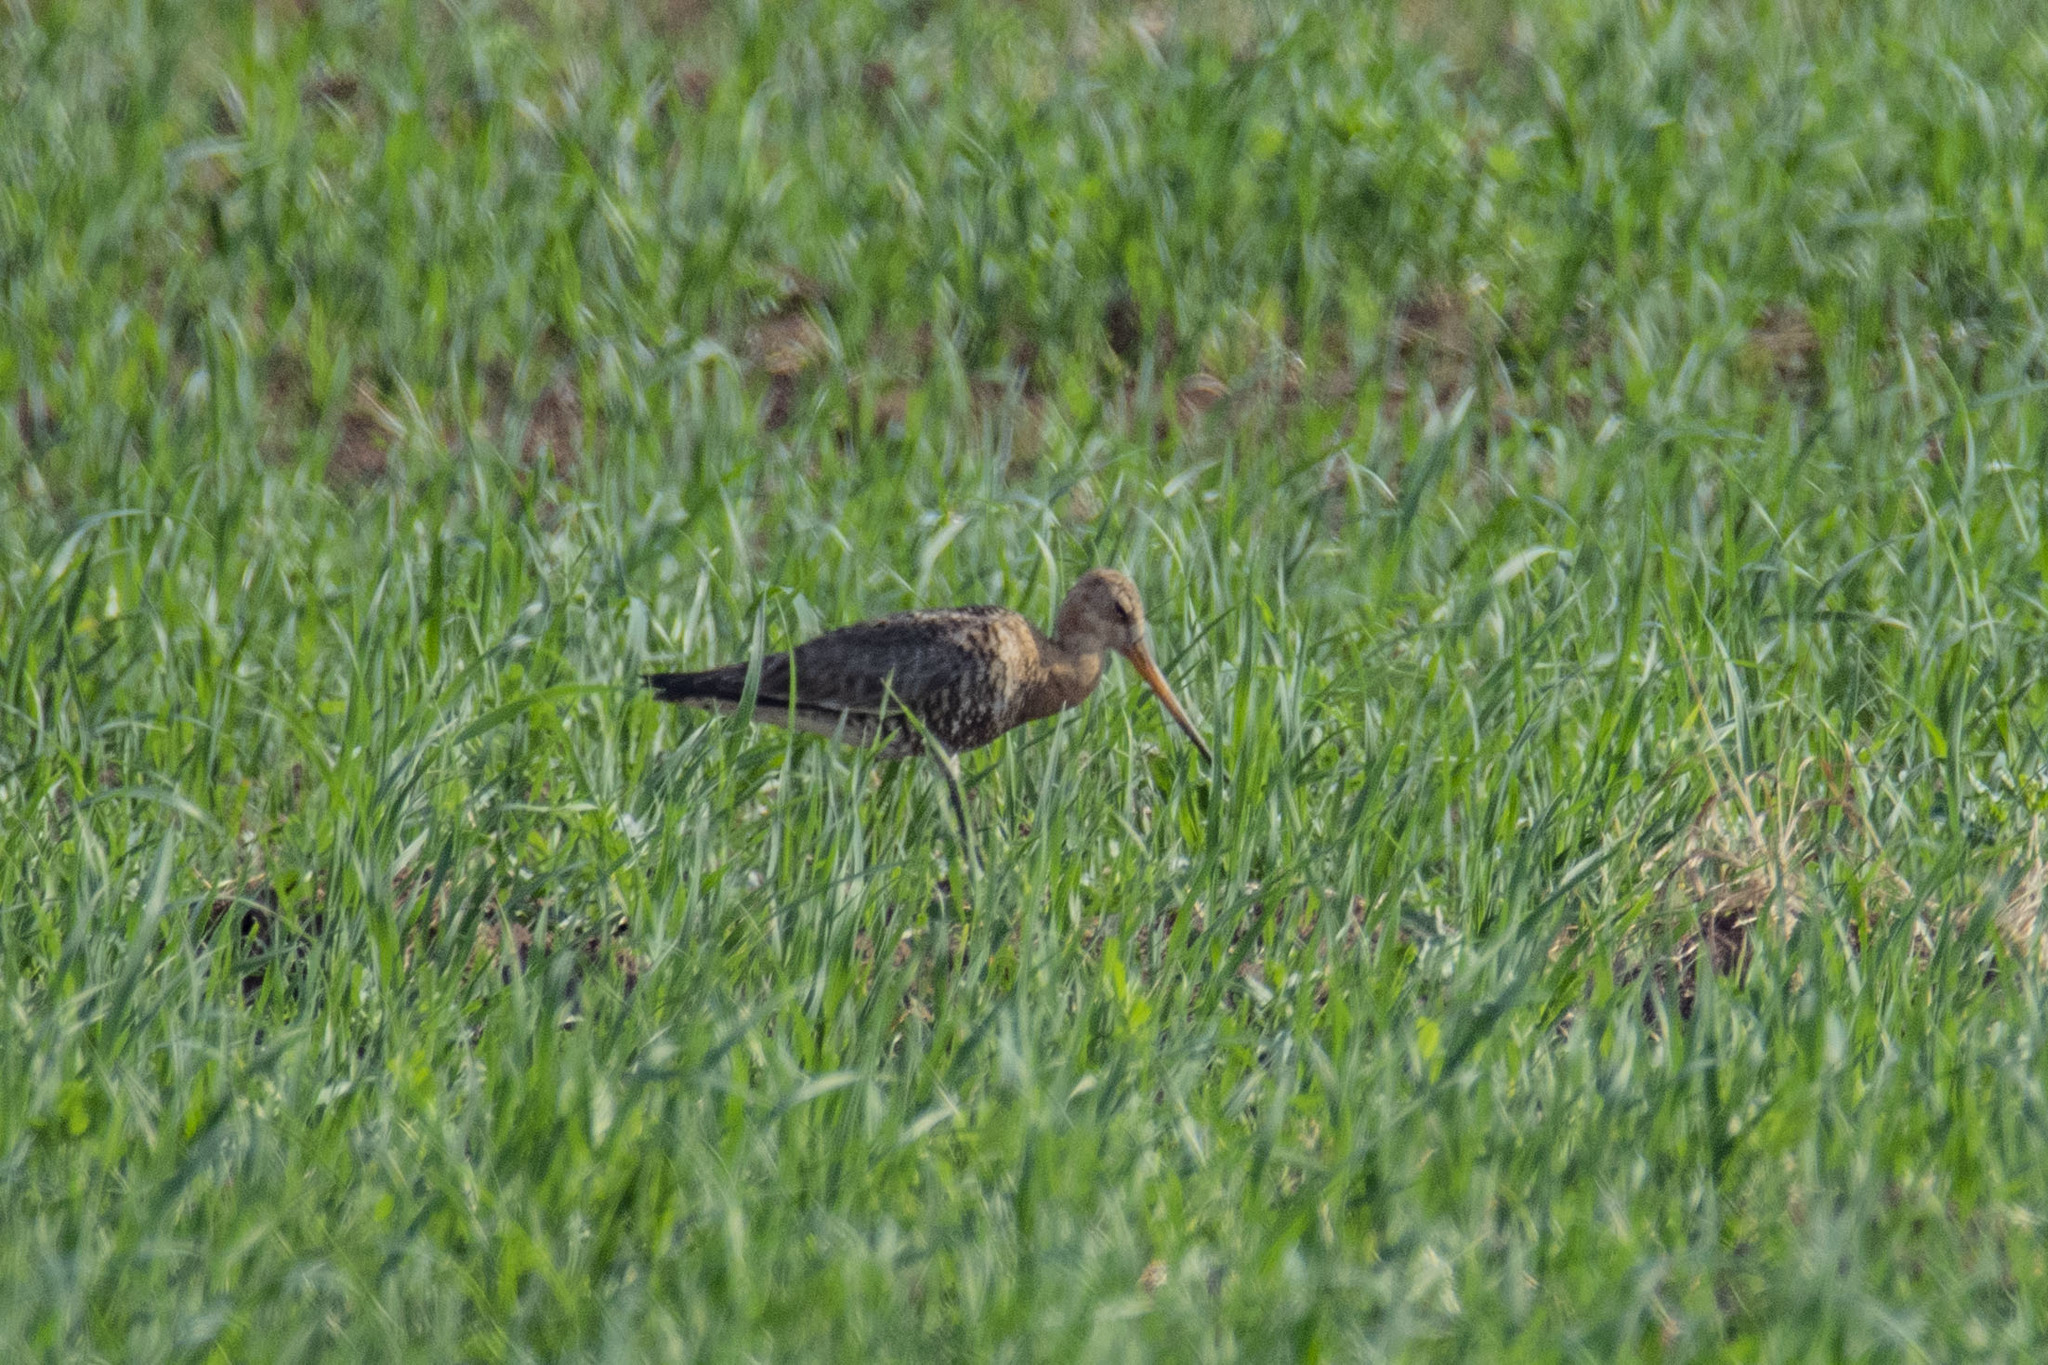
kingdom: Animalia
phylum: Chordata
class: Aves
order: Charadriiformes
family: Scolopacidae
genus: Limosa
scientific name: Limosa limosa
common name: Black-tailed godwit
